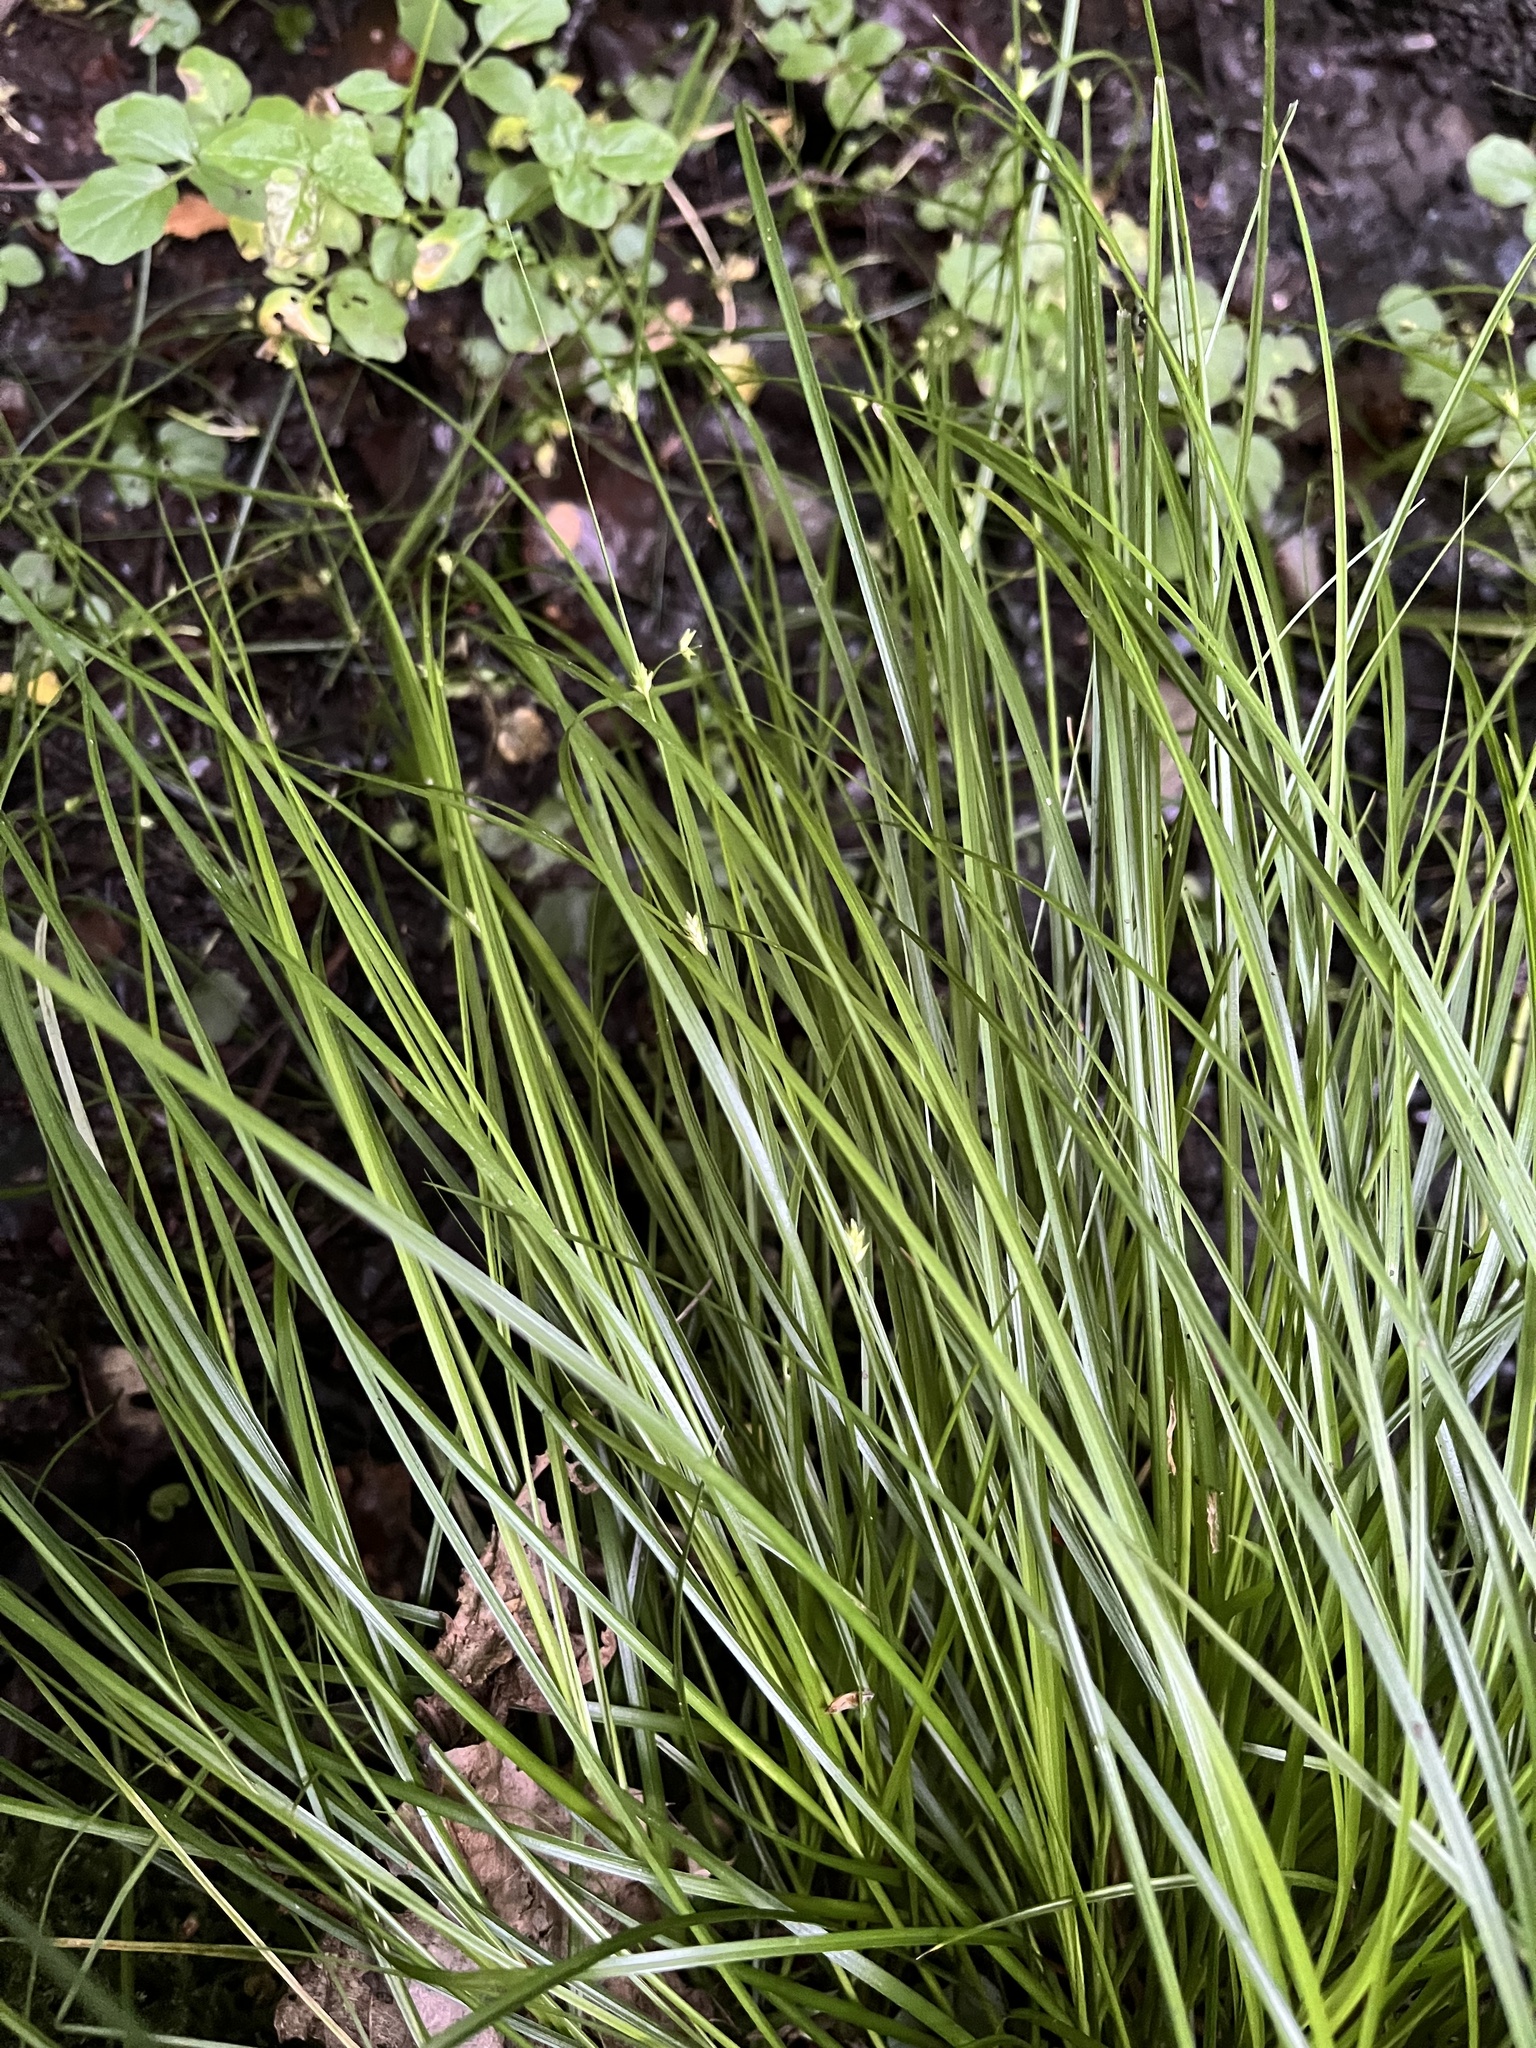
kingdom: Plantae
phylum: Tracheophyta
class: Liliopsida
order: Poales
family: Cyperaceae
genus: Carex
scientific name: Carex remota
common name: Remote sedge
